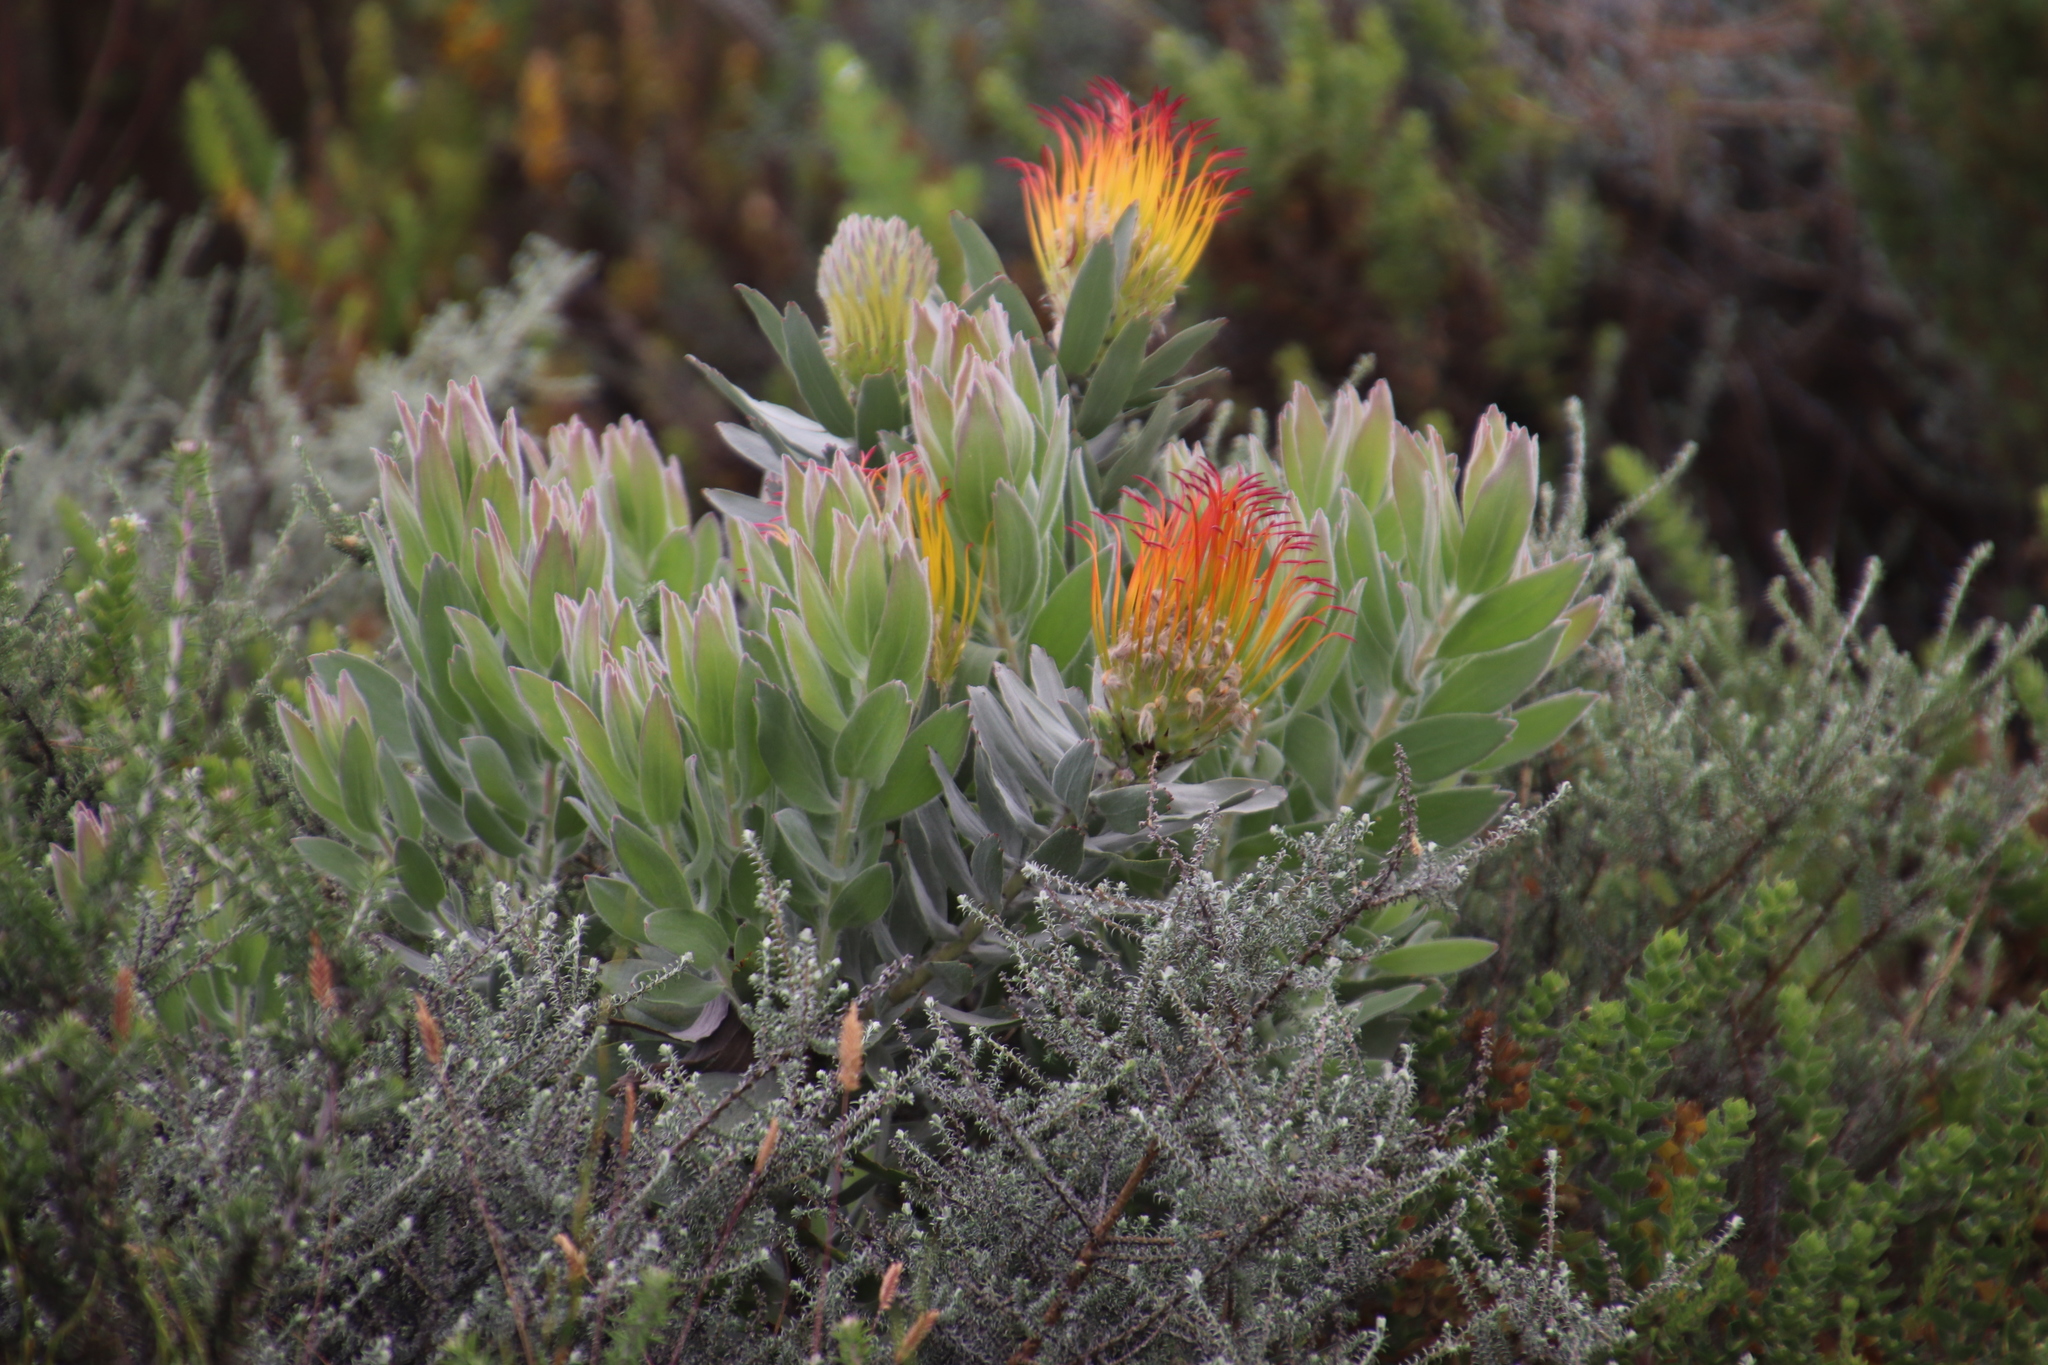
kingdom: Plantae
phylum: Tracheophyta
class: Magnoliopsida
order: Proteales
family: Proteaceae
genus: Leucospermum
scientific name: Leucospermum grandiflorum
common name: Grey-leaf fountain pincushion
